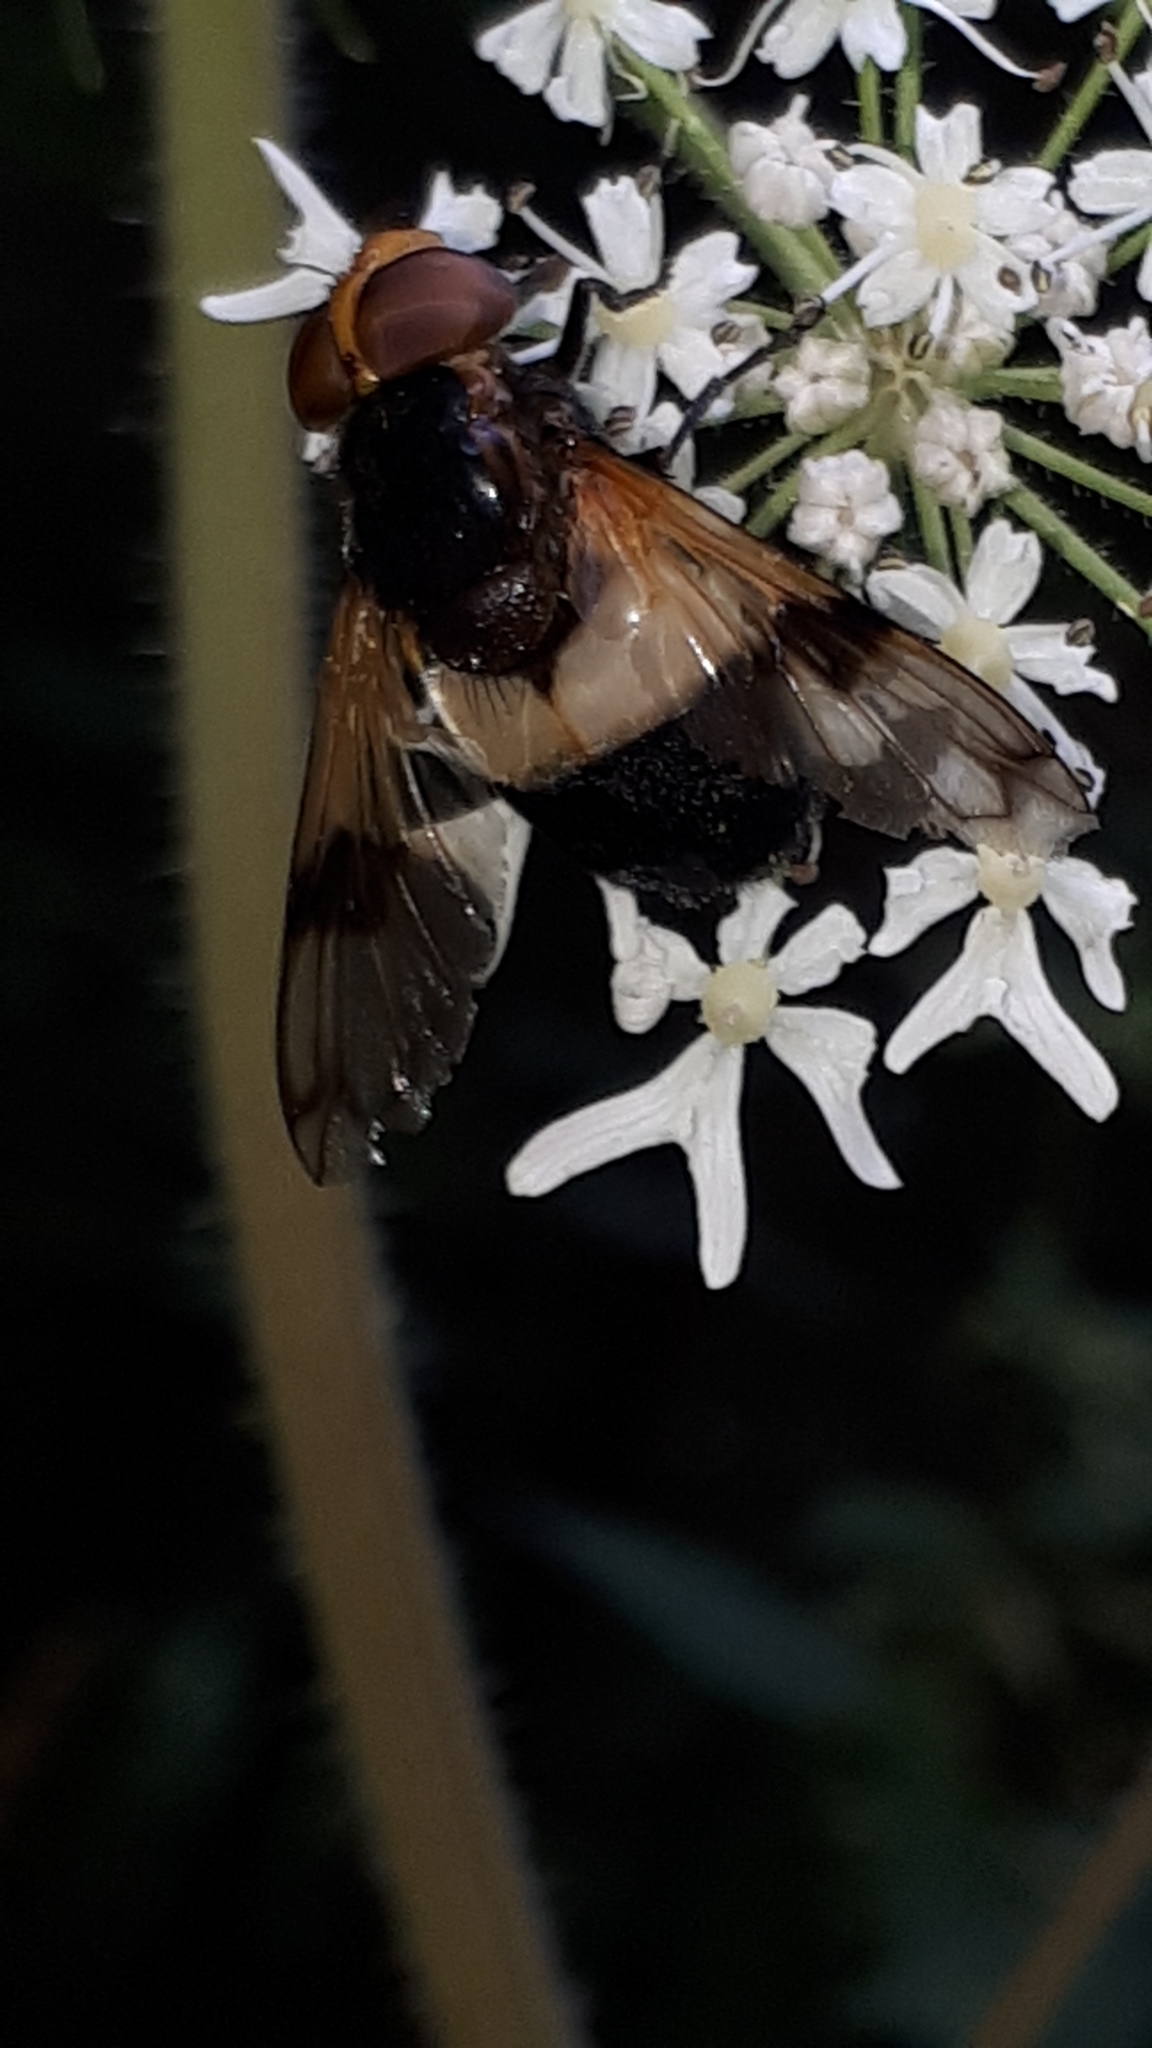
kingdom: Animalia
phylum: Arthropoda
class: Insecta
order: Diptera
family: Syrphidae
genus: Volucella
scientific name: Volucella pellucens
